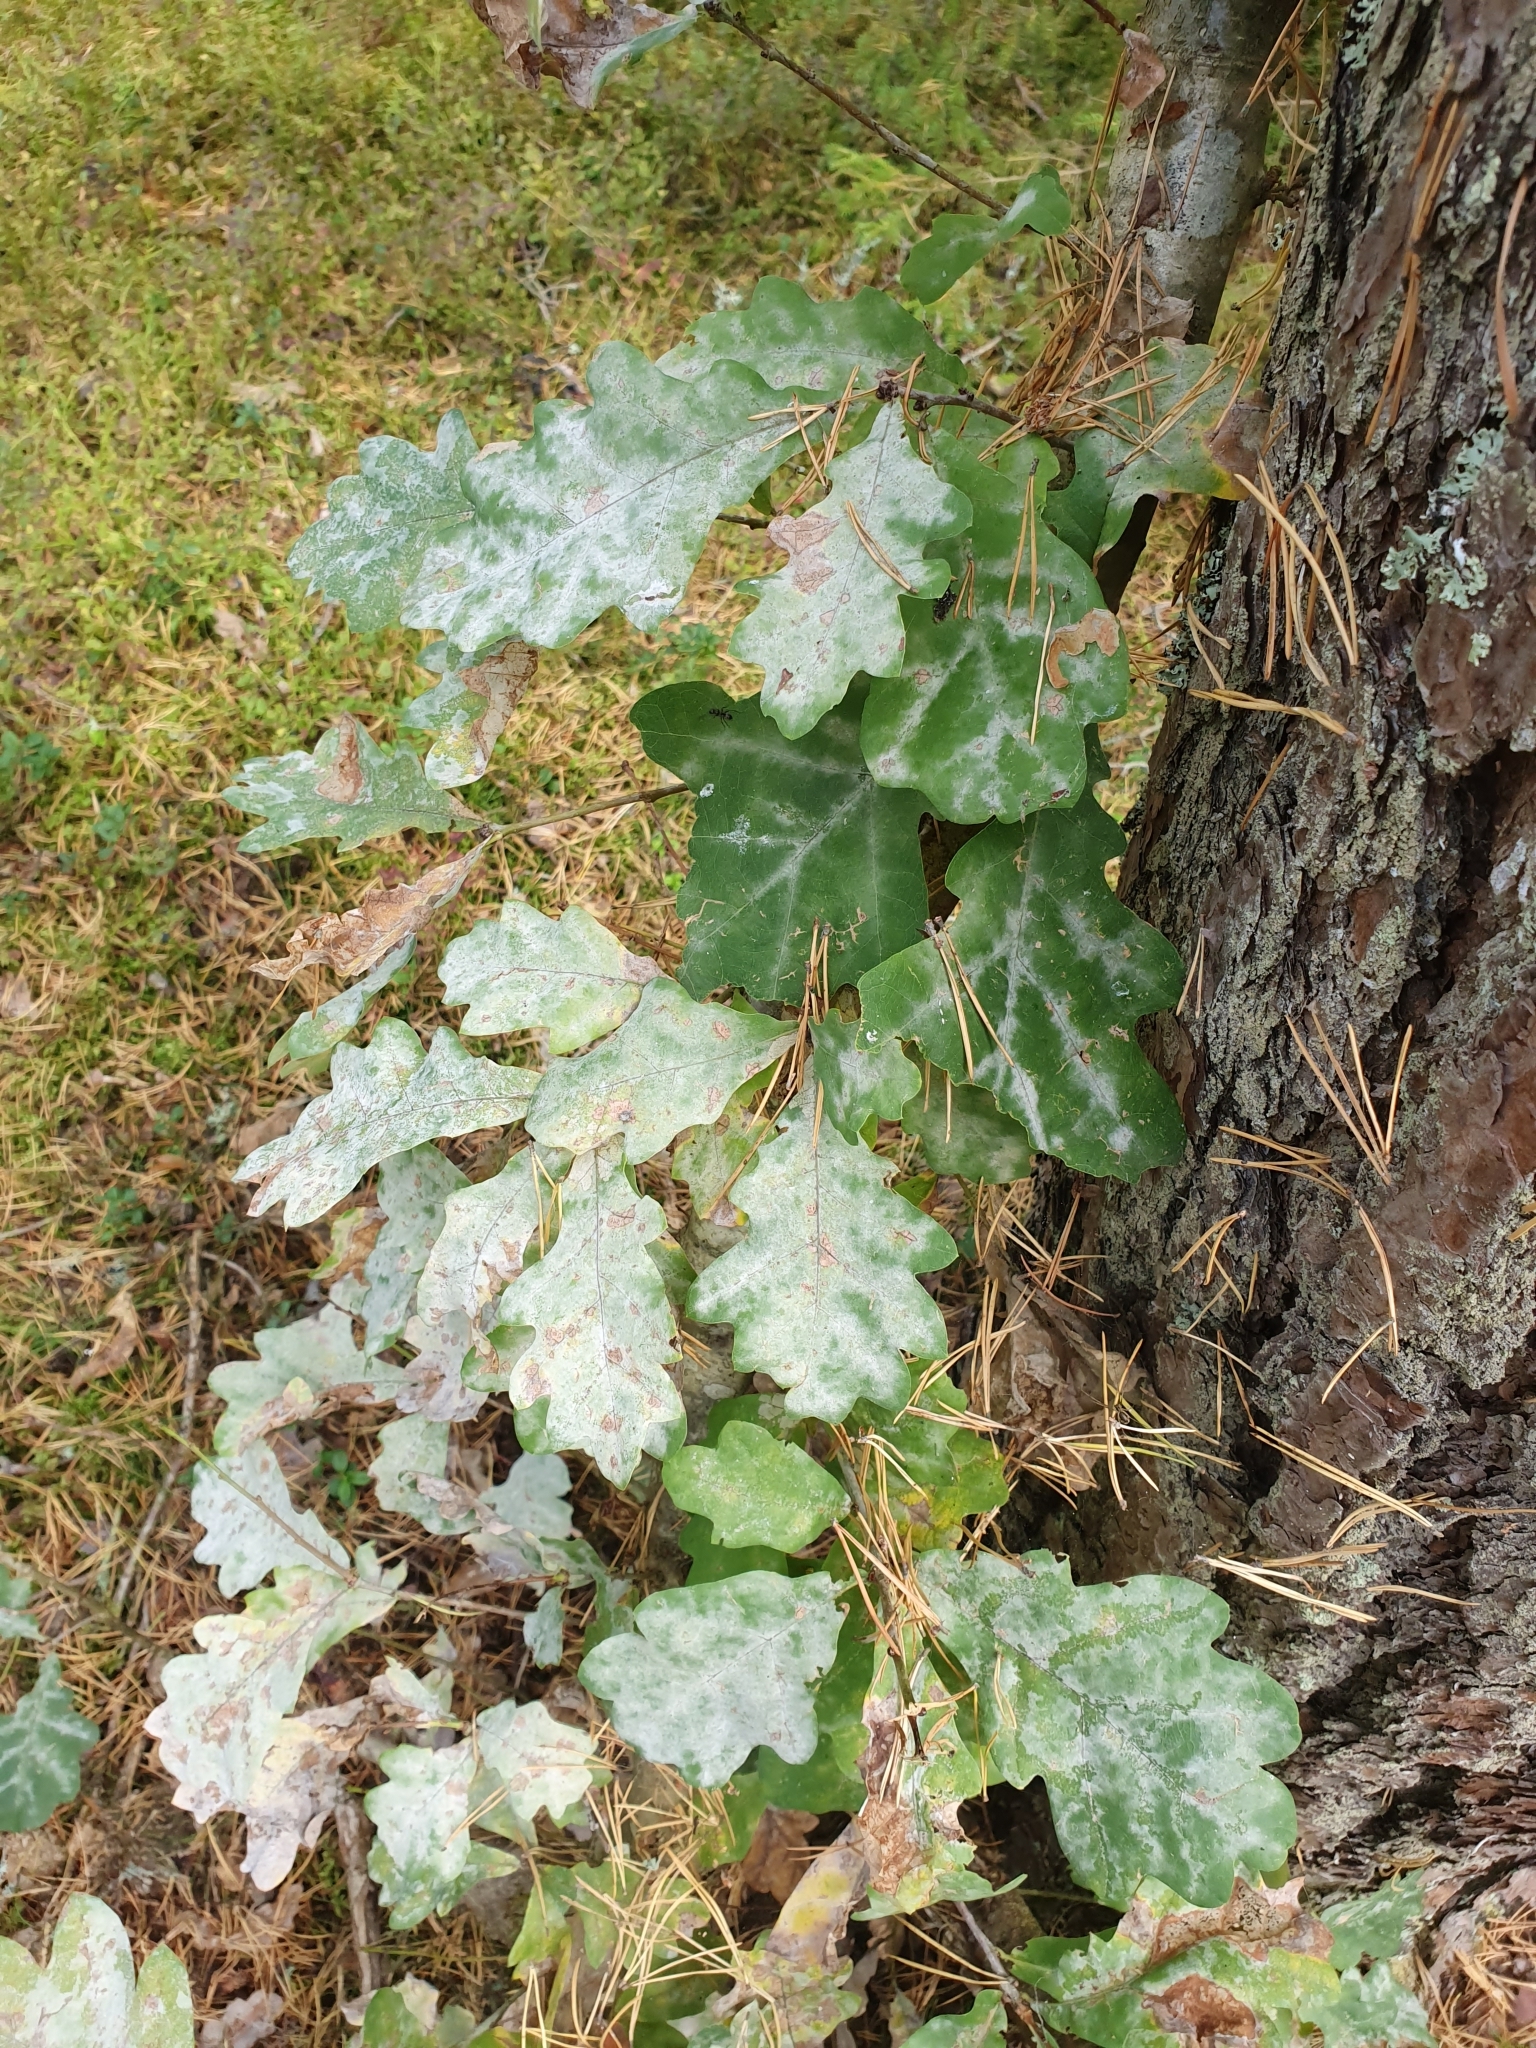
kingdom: Fungi
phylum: Ascomycota
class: Leotiomycetes
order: Helotiales
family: Erysiphaceae
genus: Erysiphe
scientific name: Erysiphe alphitoides
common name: Oak mildew
